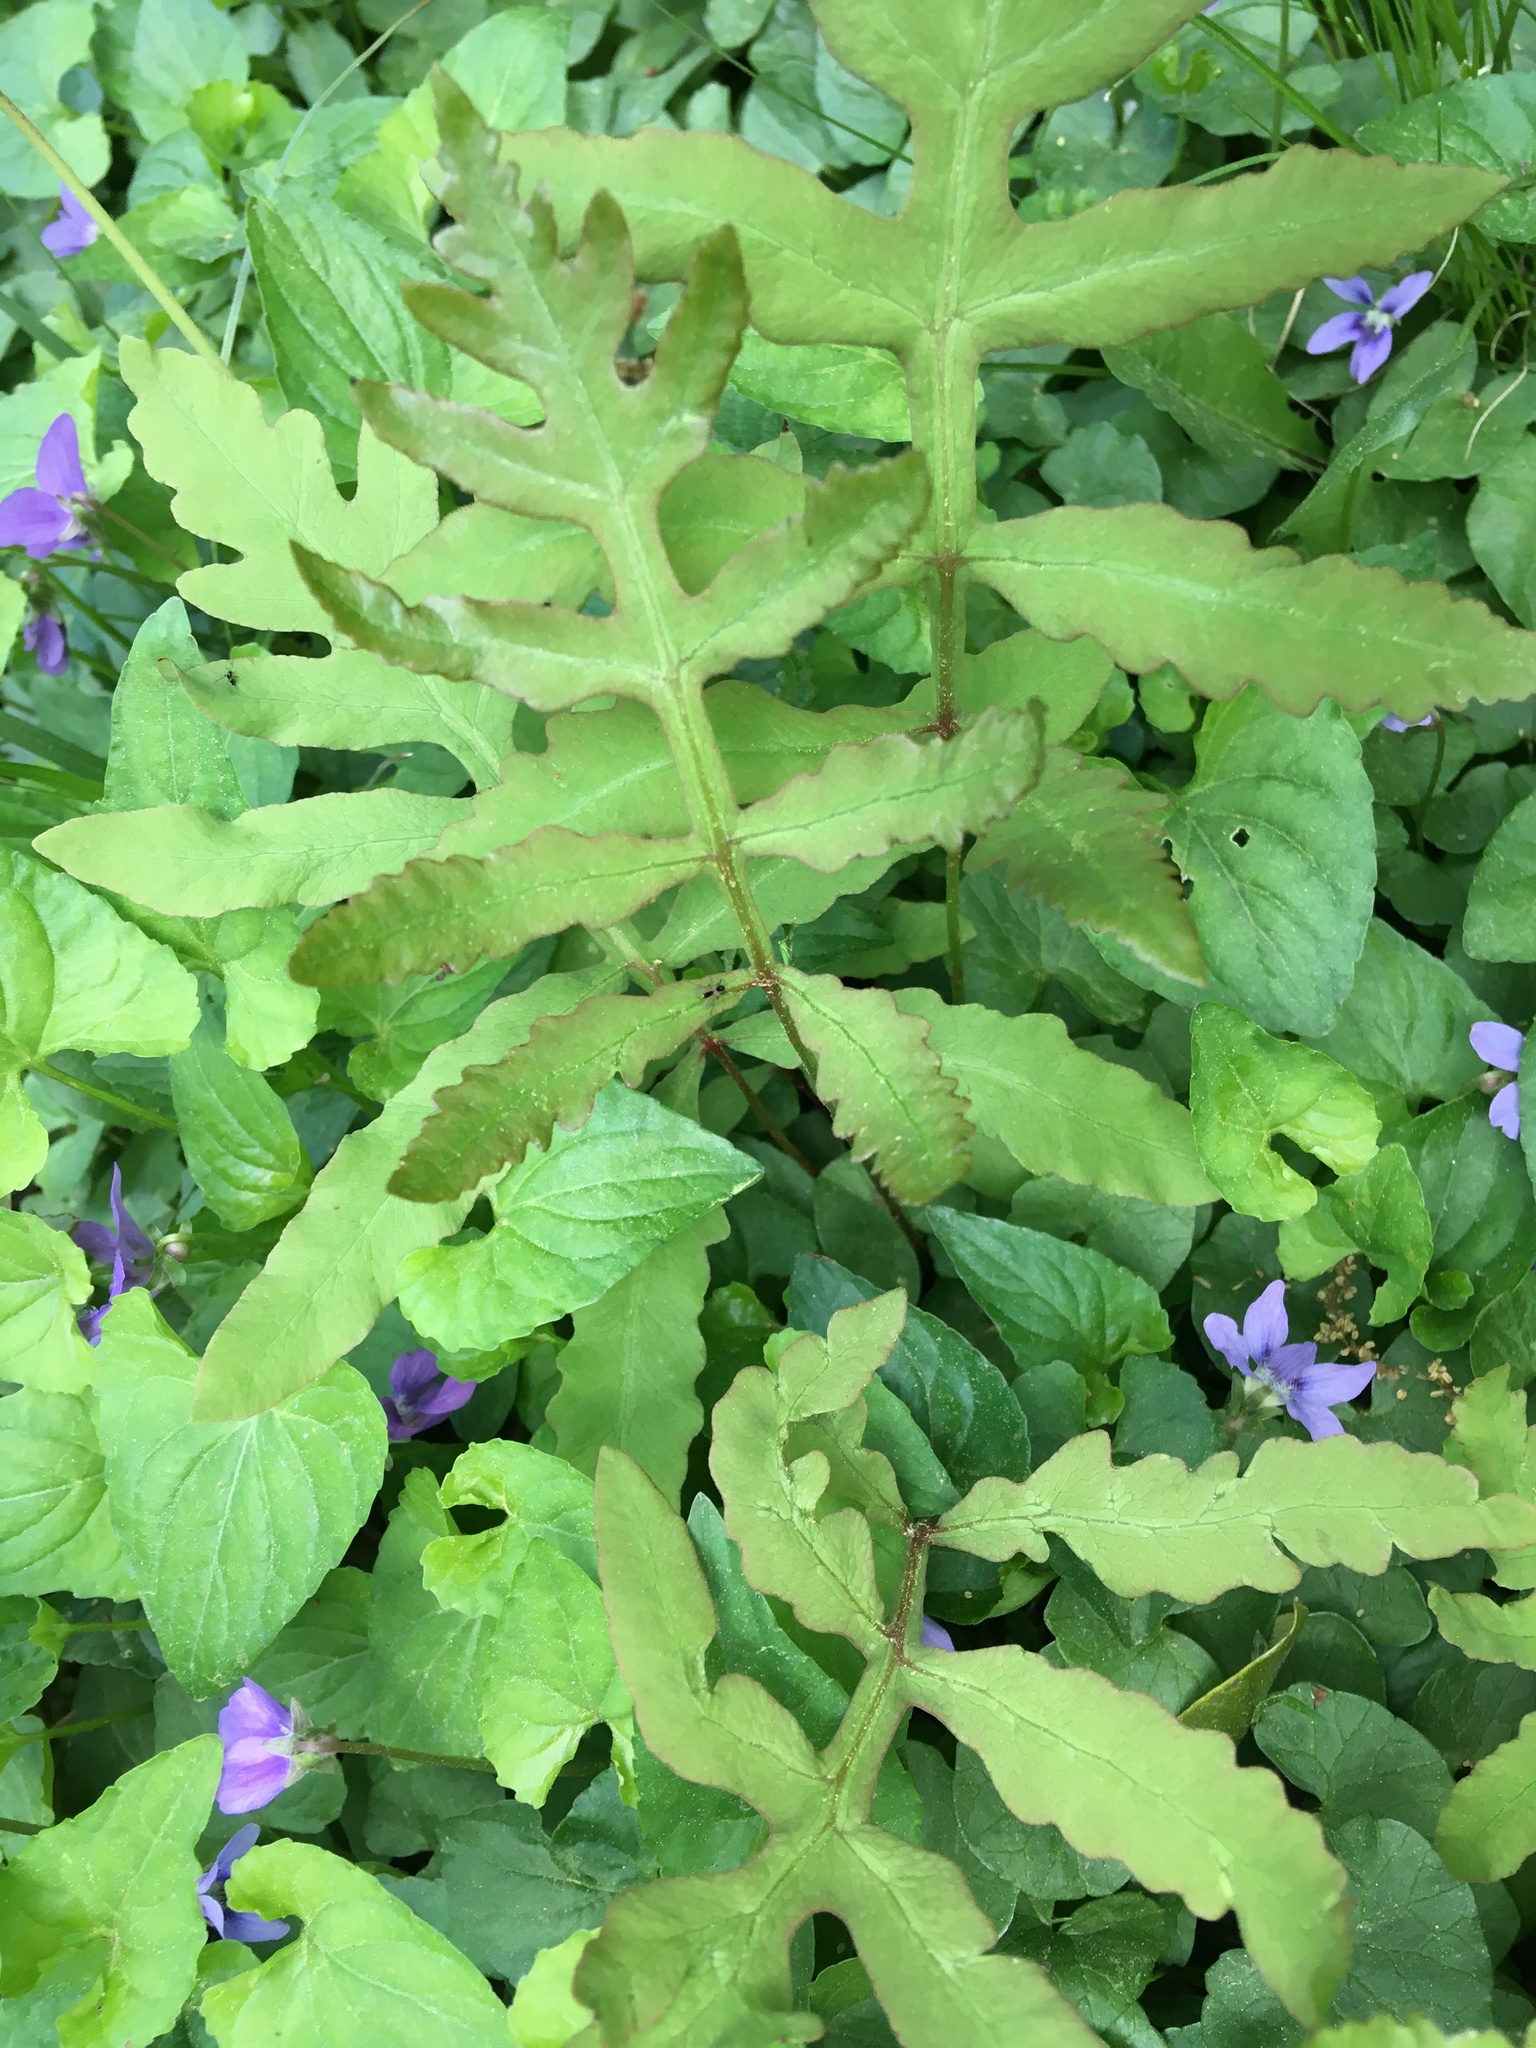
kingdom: Plantae
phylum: Tracheophyta
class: Polypodiopsida
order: Polypodiales
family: Onocleaceae
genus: Onoclea
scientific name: Onoclea sensibilis
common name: Sensitive fern
